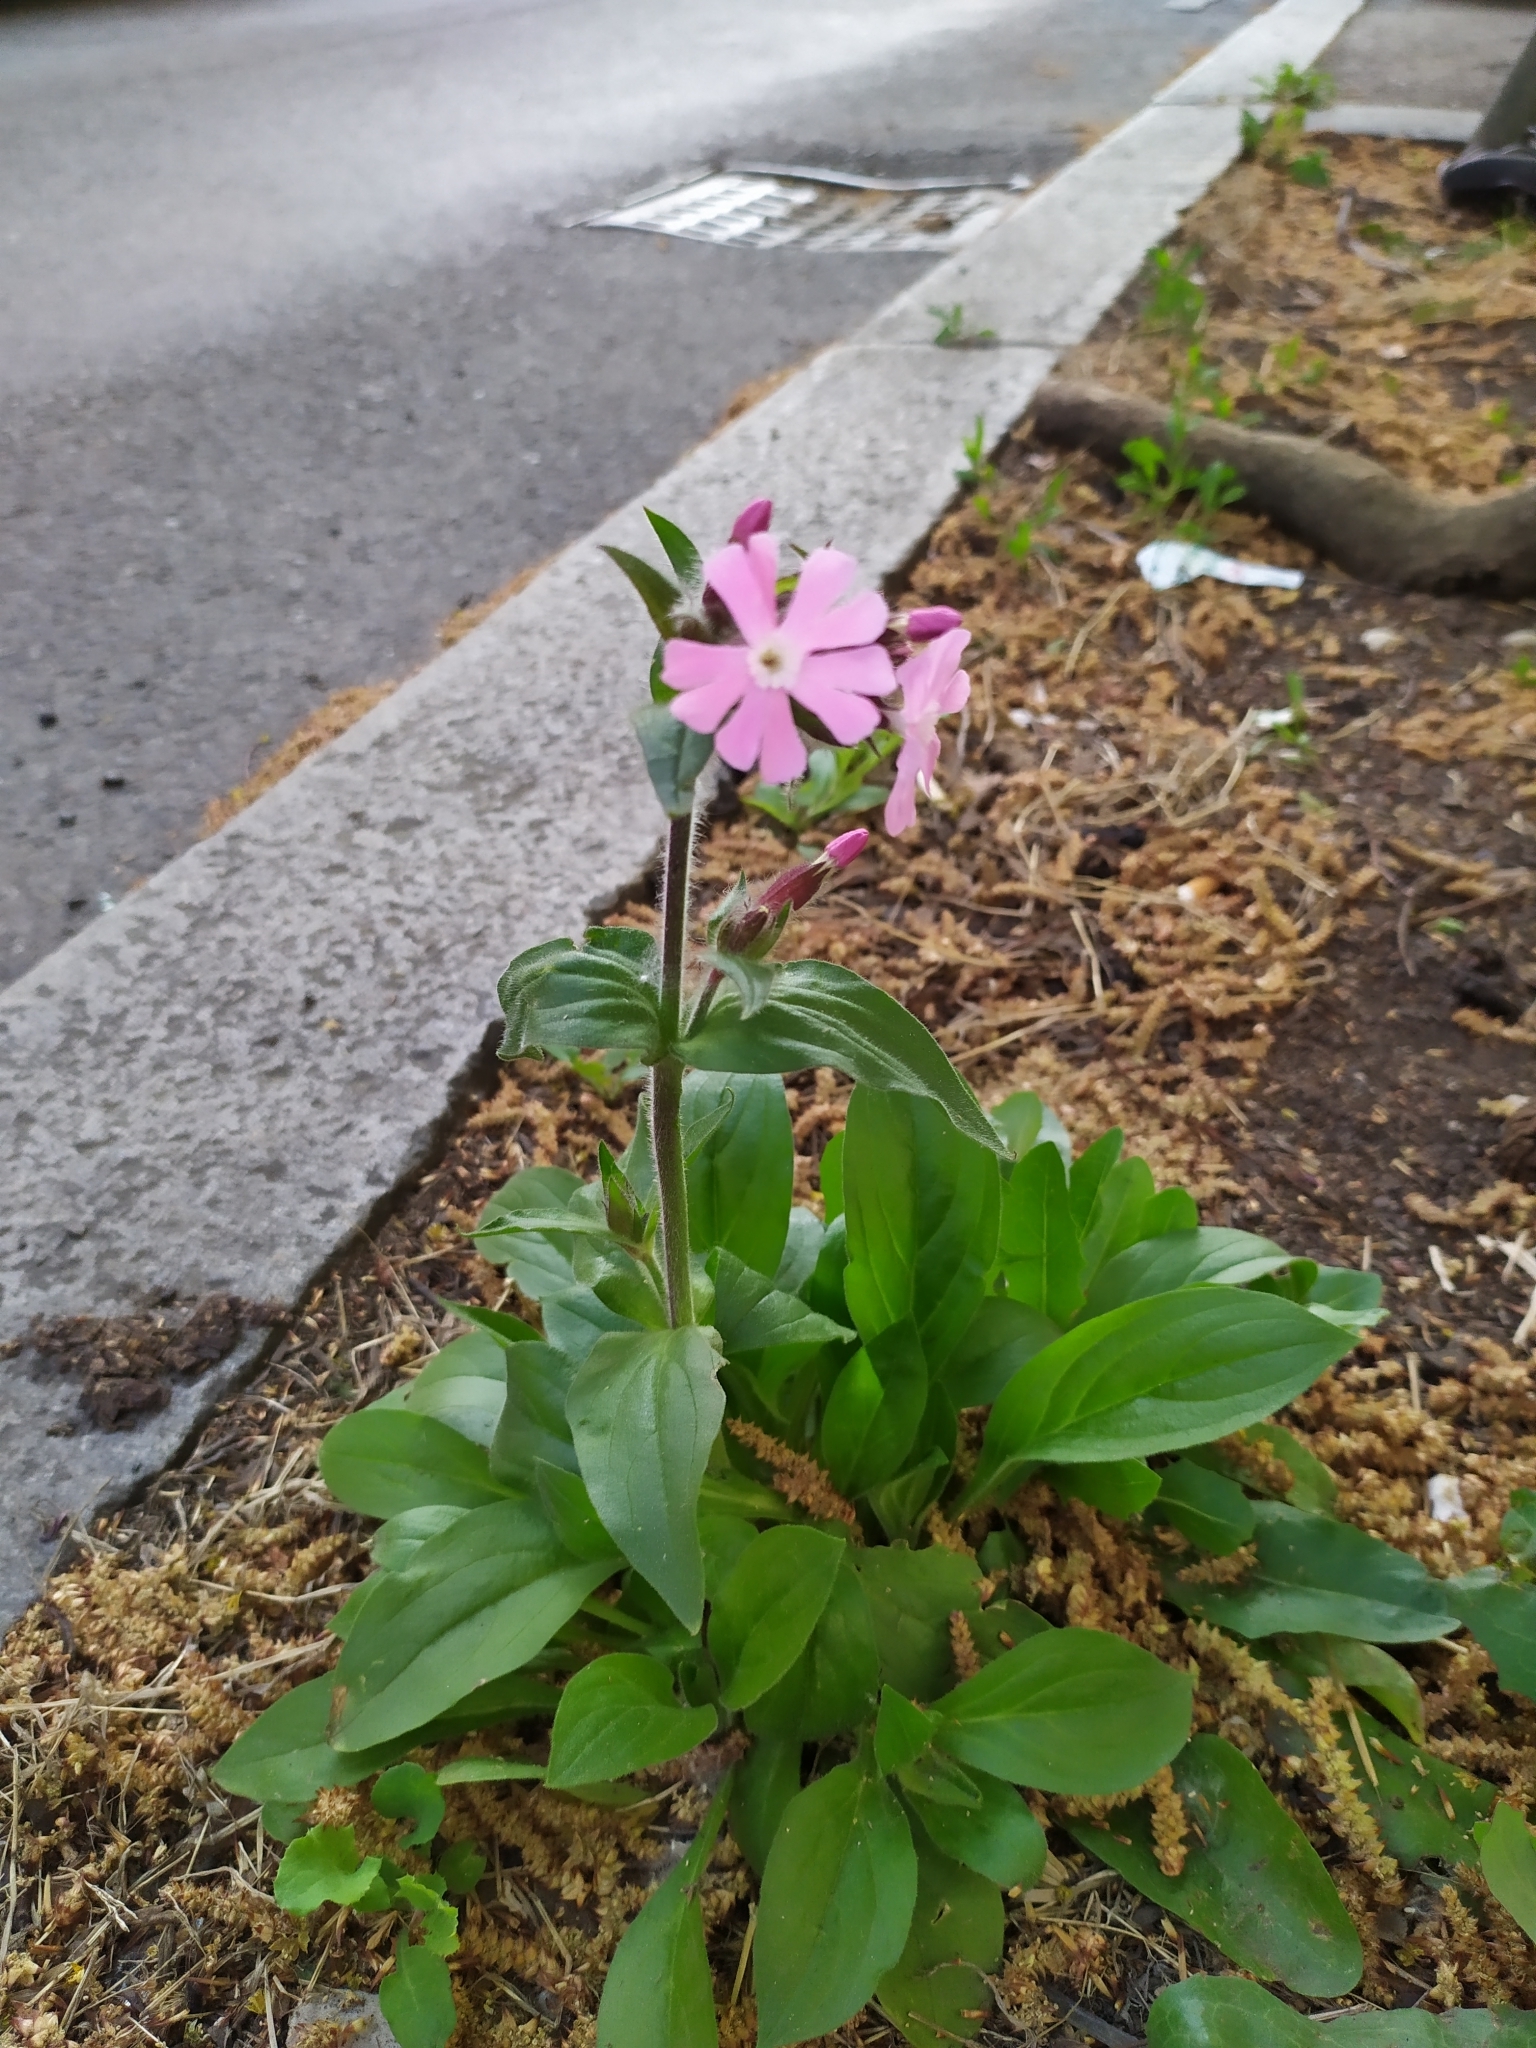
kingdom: Plantae
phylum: Tracheophyta
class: Magnoliopsida
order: Caryophyllales
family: Caryophyllaceae
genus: Silene
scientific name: Silene dioica
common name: Red campion
